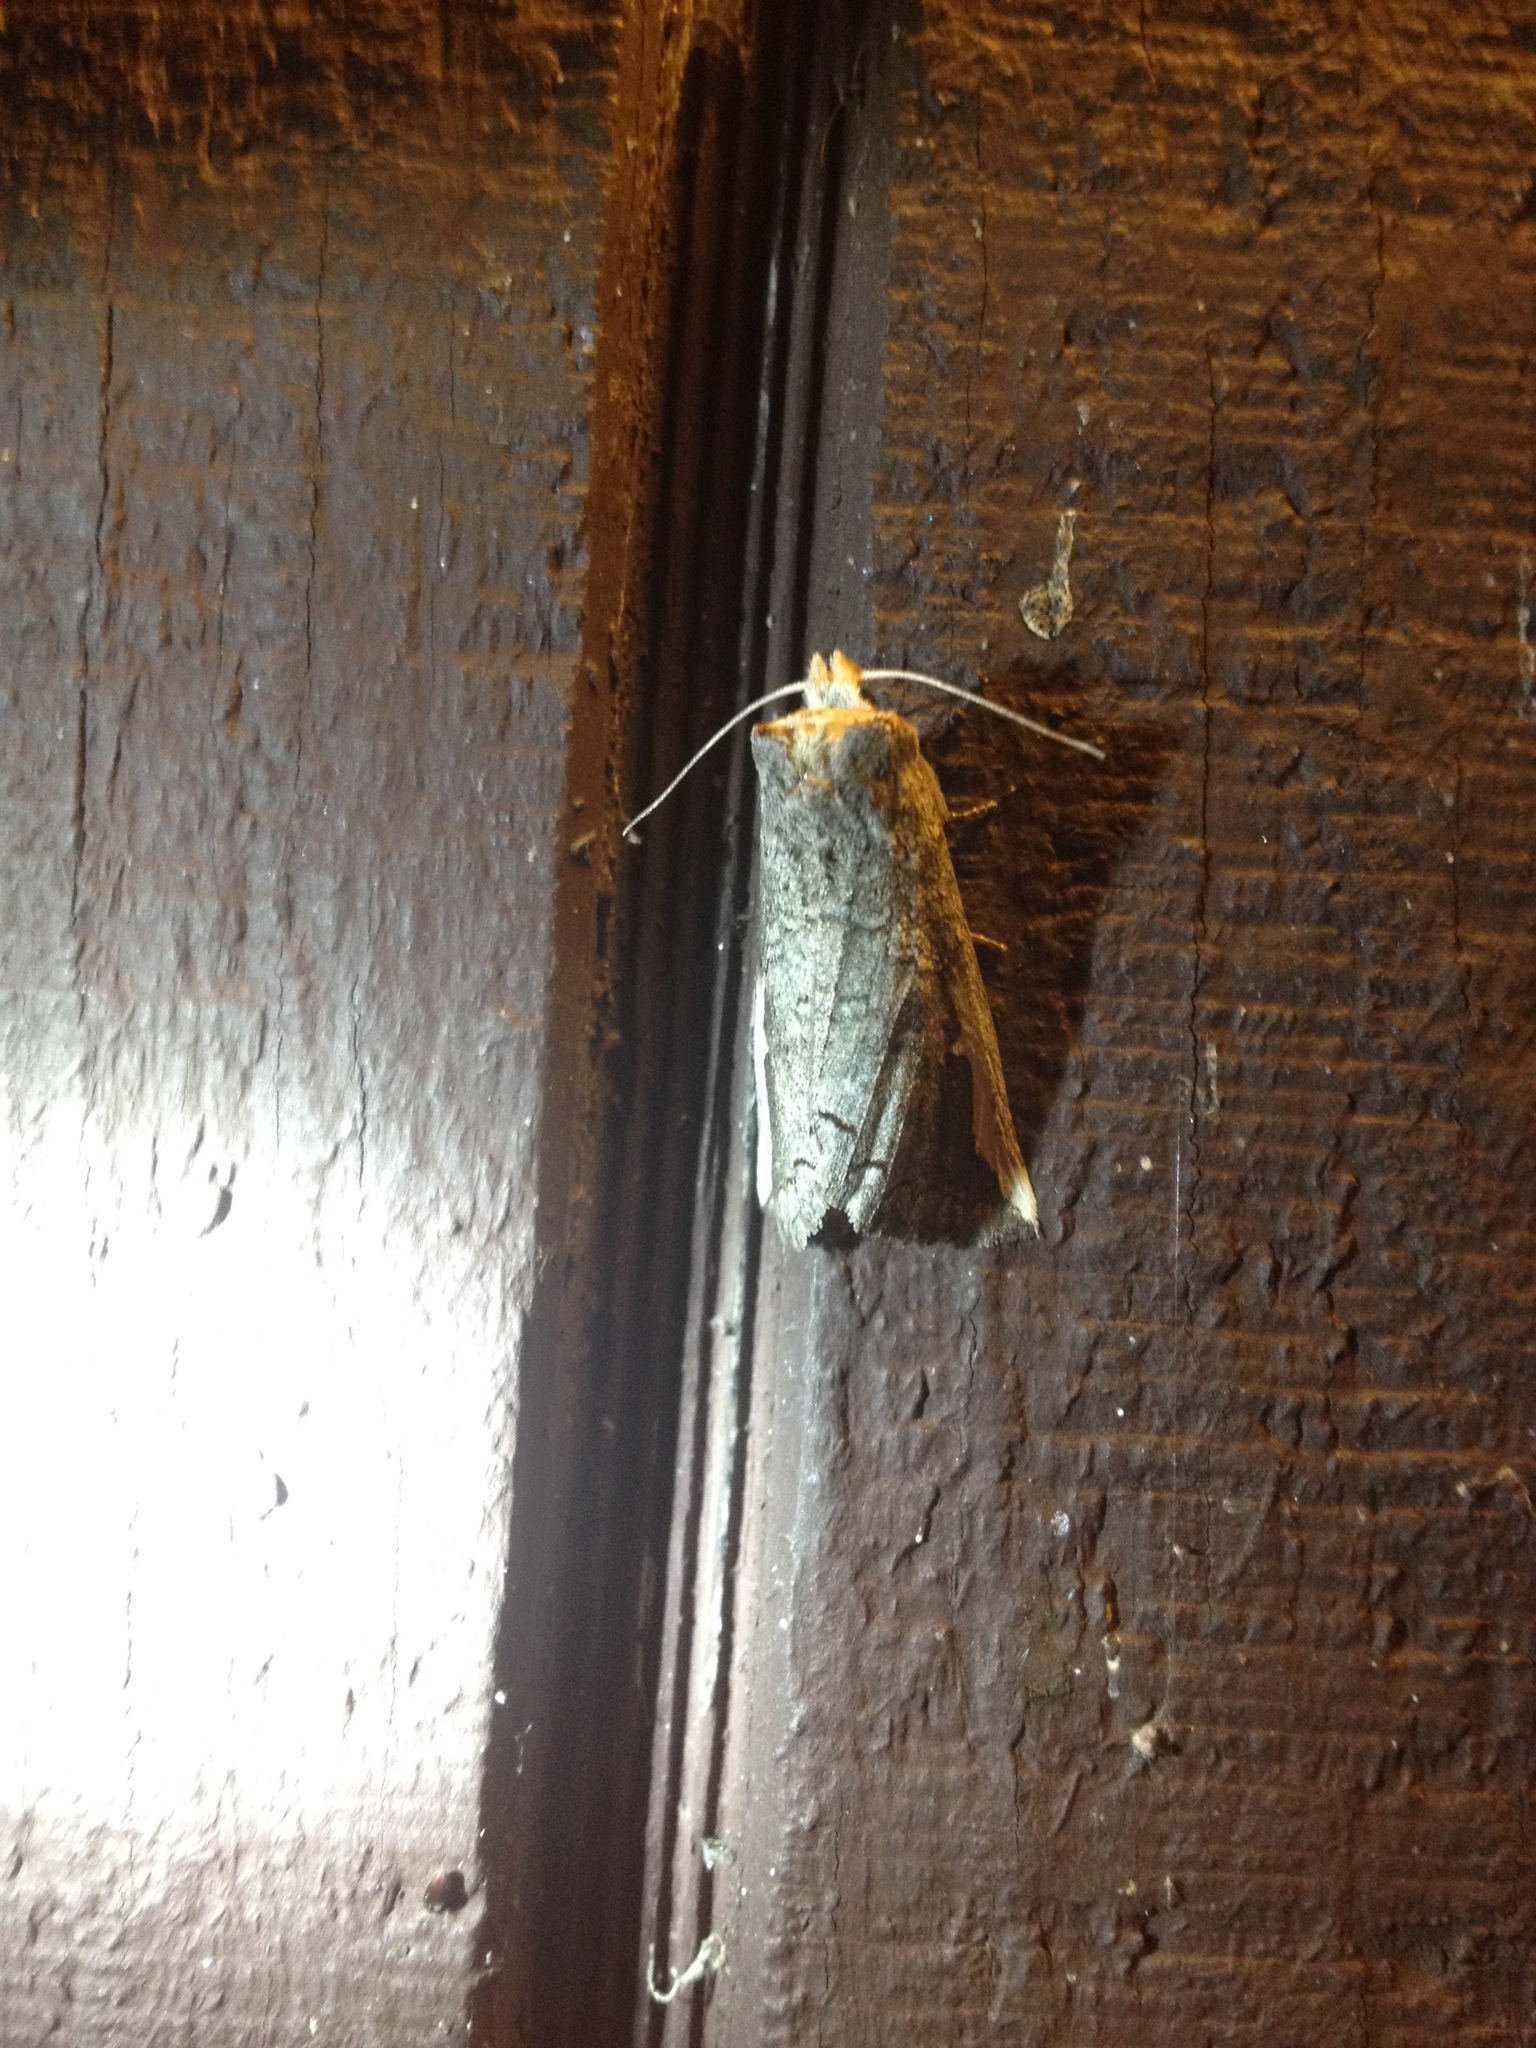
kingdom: Animalia
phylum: Arthropoda
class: Insecta
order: Lepidoptera
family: Notodontidae
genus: Symmerista
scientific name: Symmerista
